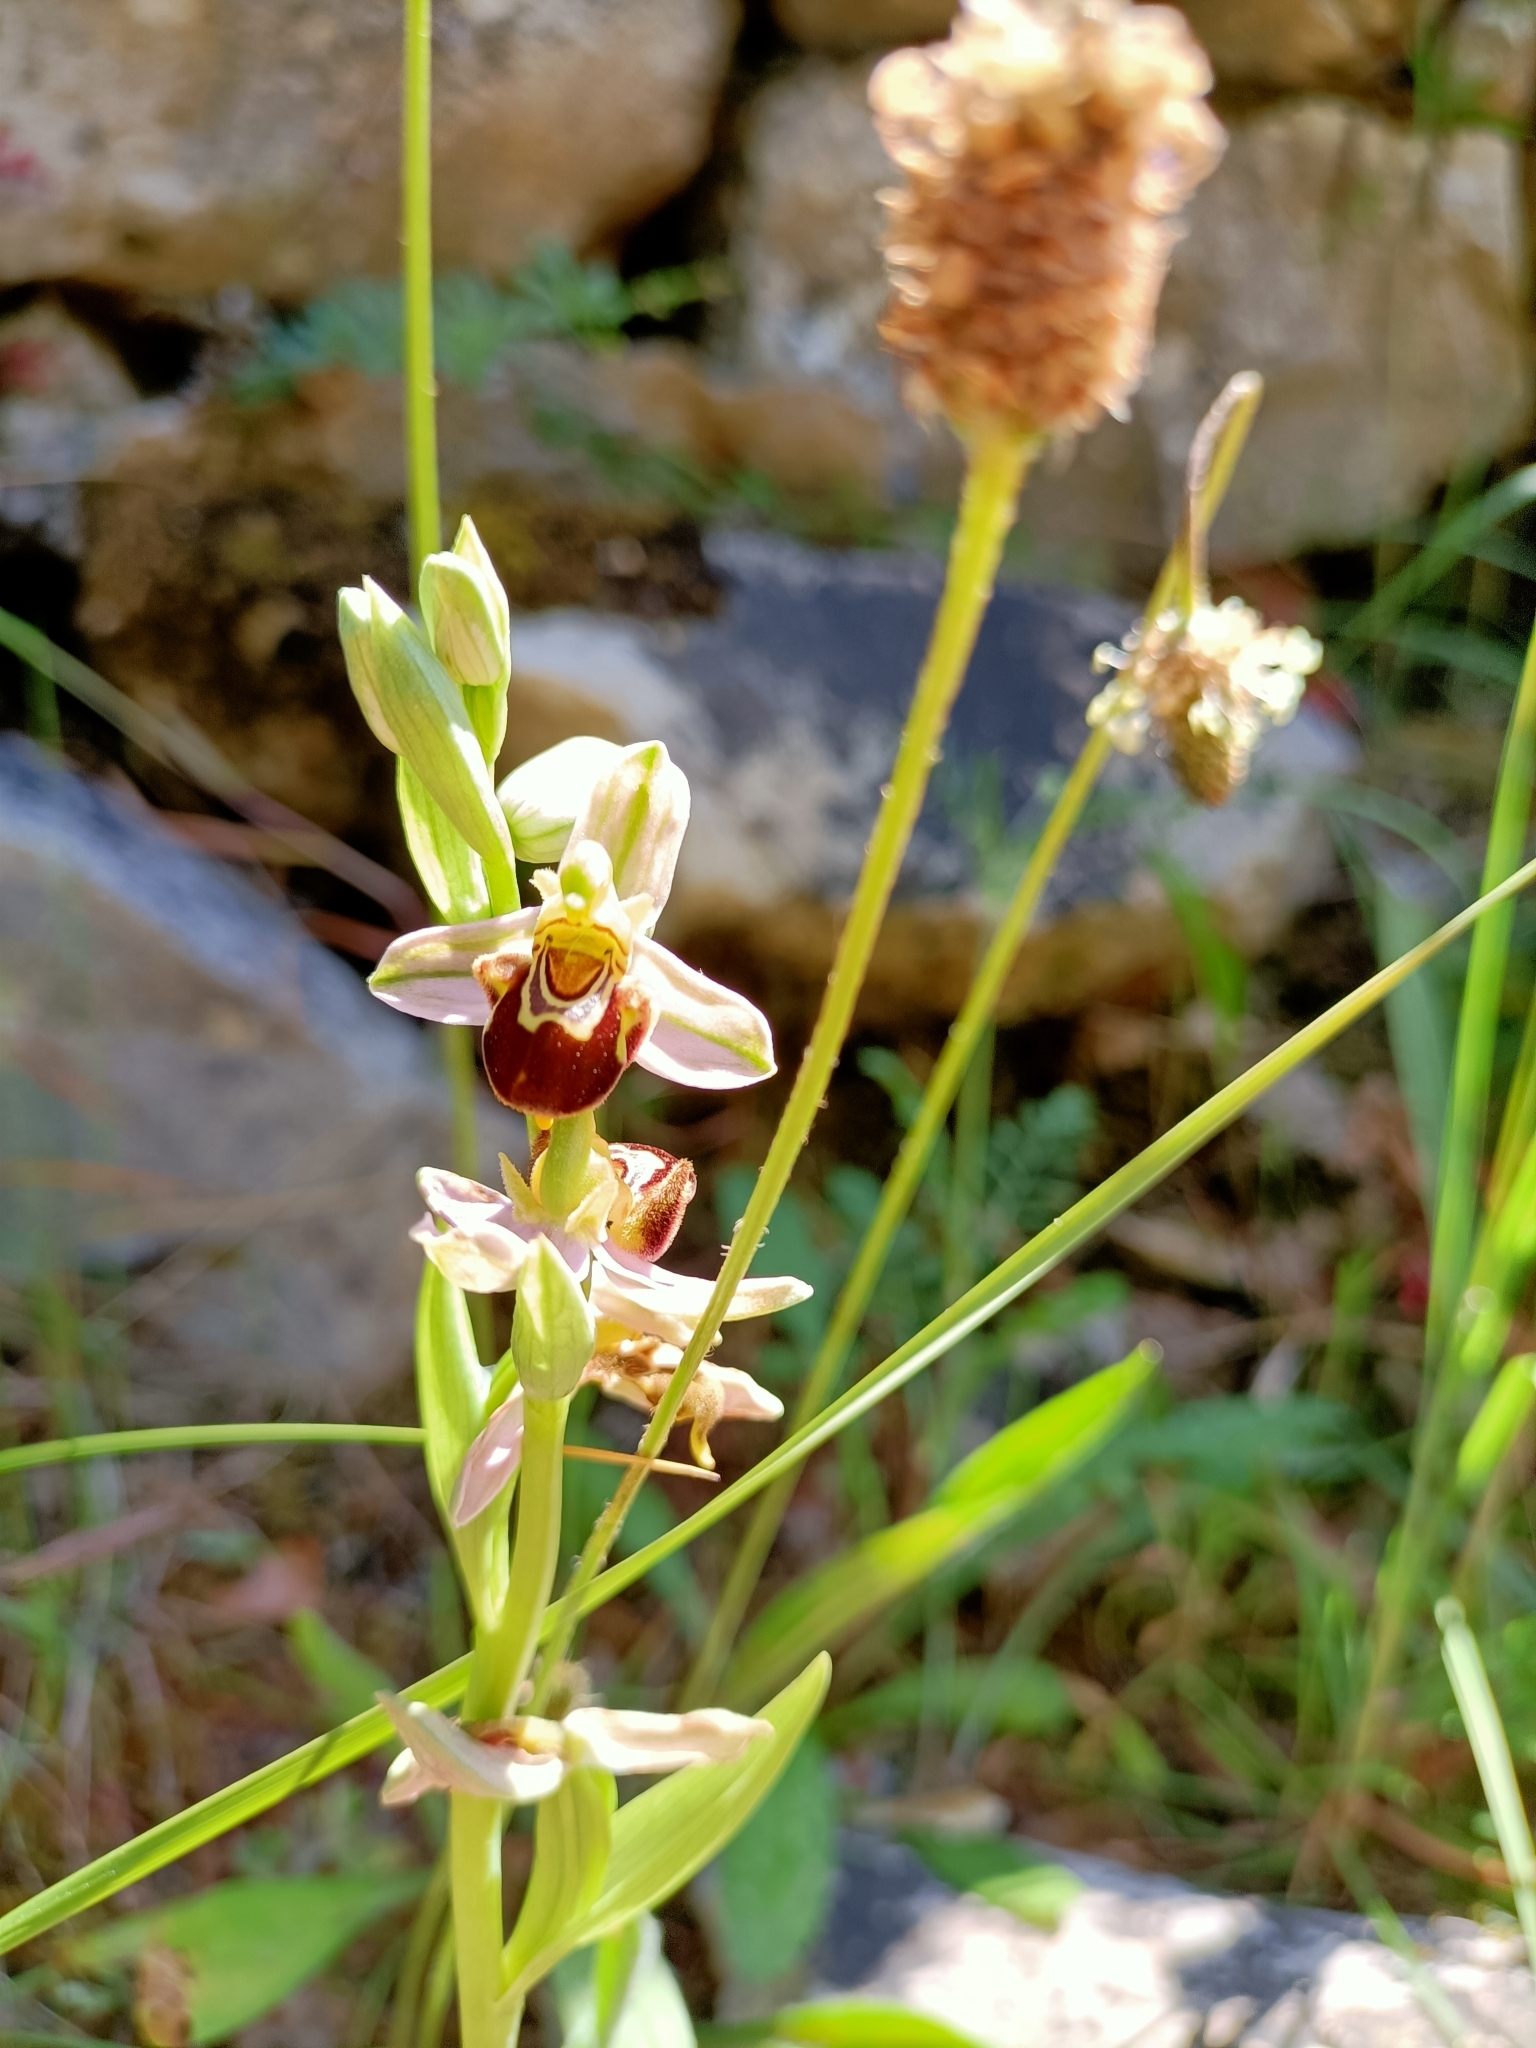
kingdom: Plantae
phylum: Tracheophyta
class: Liliopsida
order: Asparagales
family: Orchidaceae
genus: Ophrys
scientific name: Ophrys apifera
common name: Bee orchid
